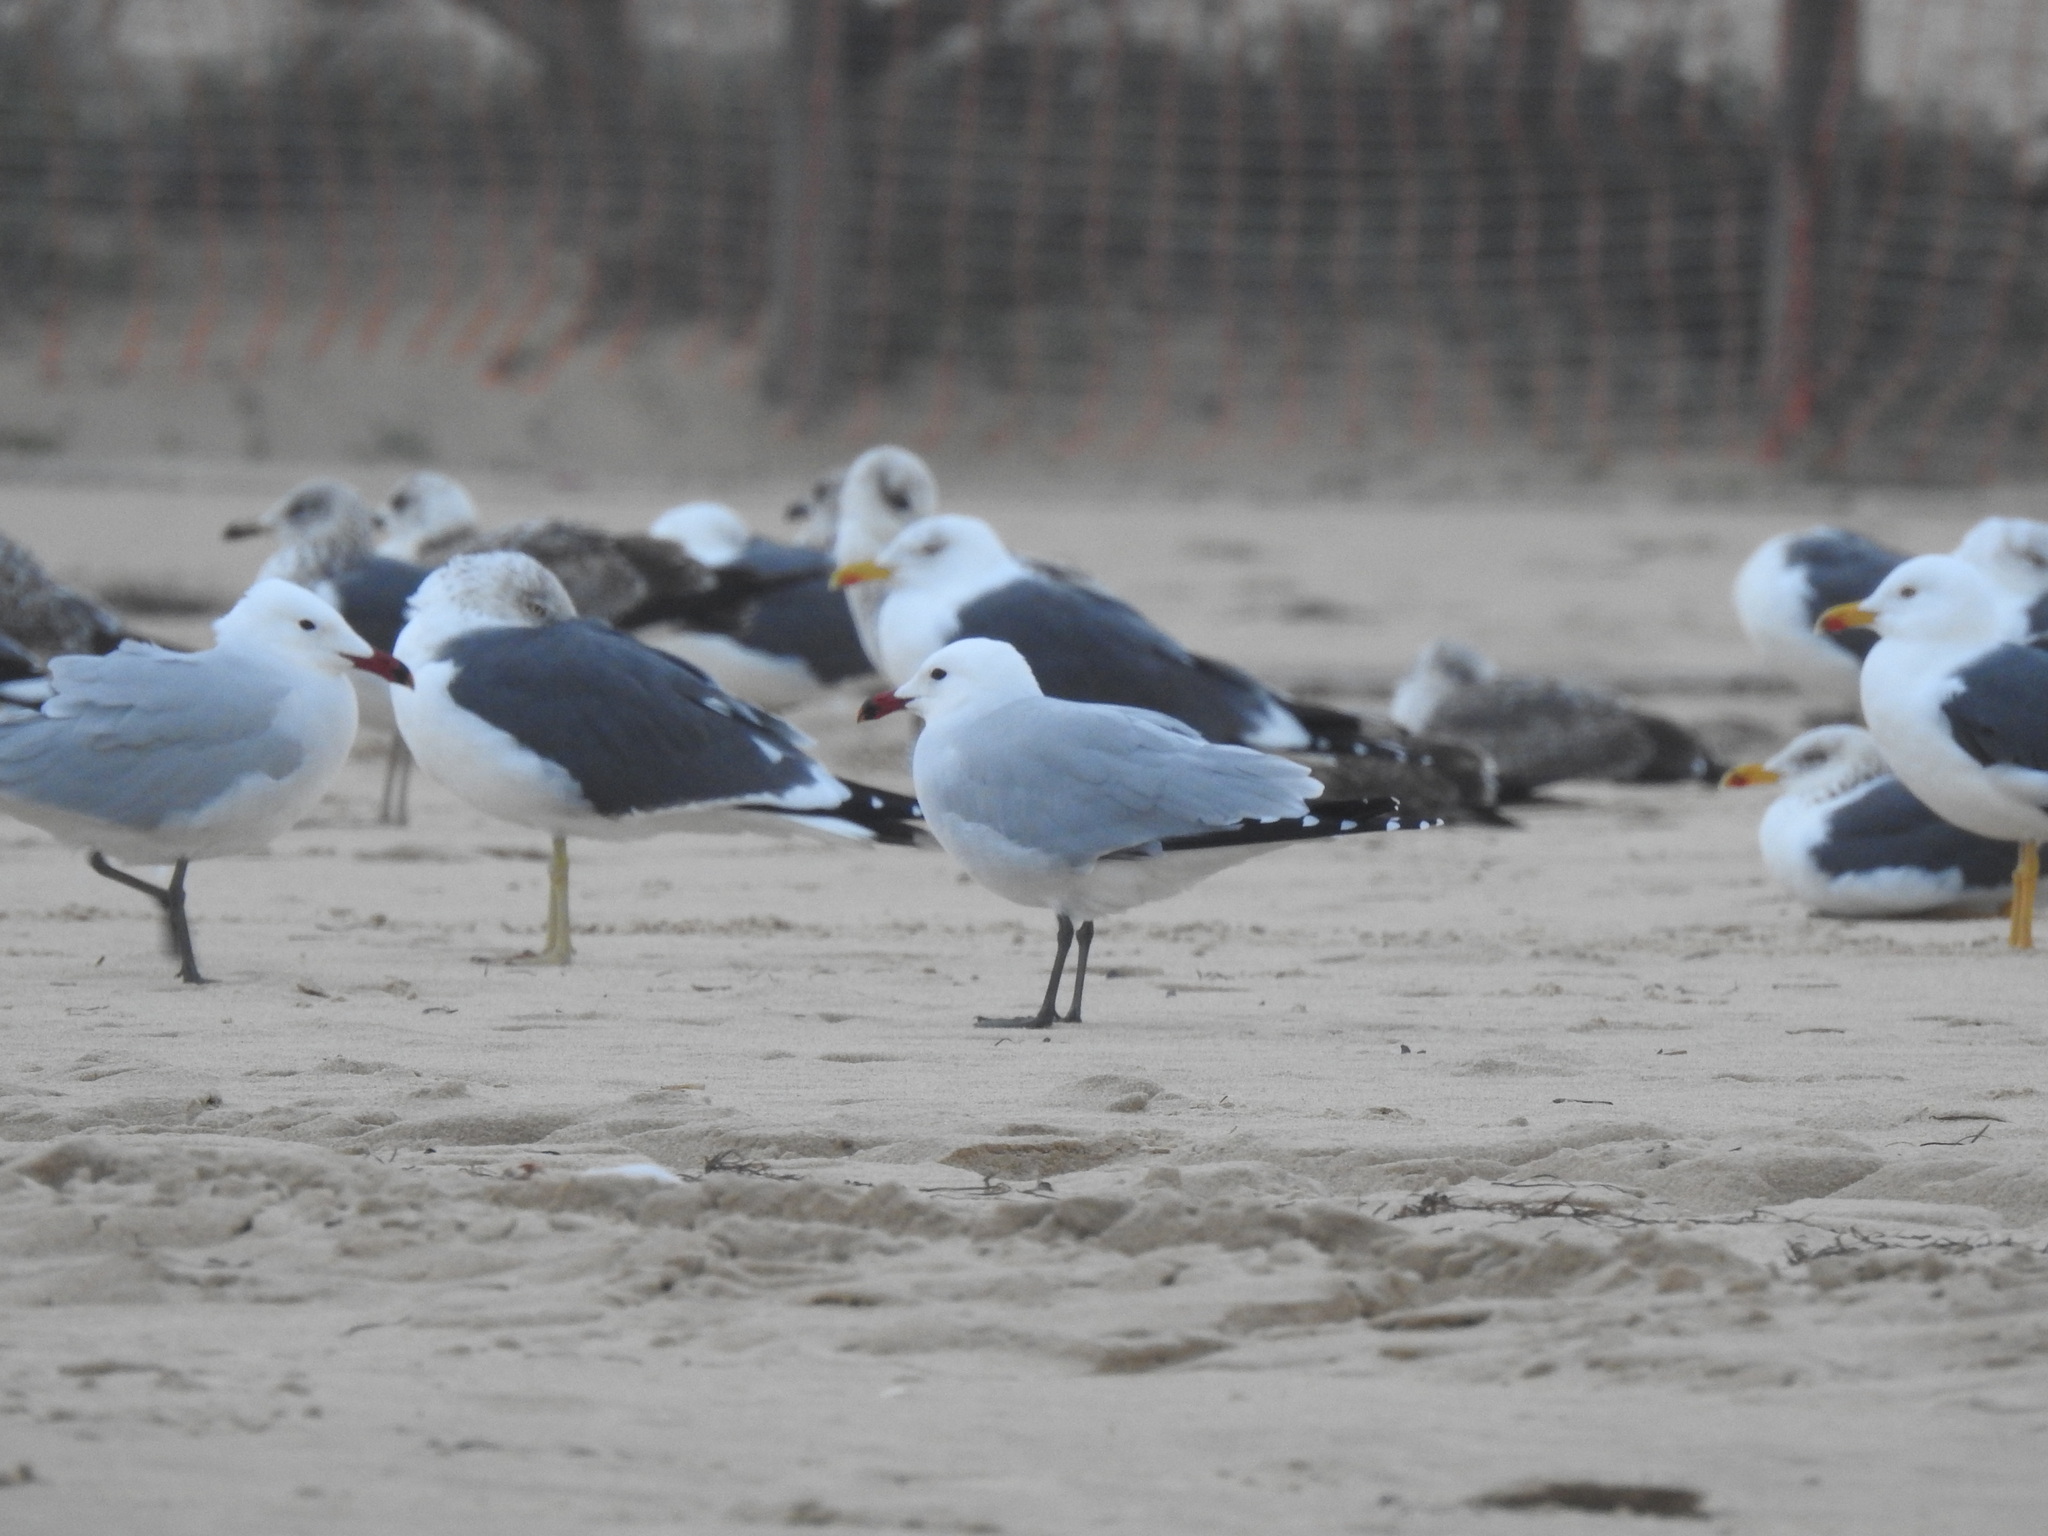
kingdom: Animalia
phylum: Chordata
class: Aves
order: Charadriiformes
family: Laridae
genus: Ichthyaetus
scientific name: Ichthyaetus audouinii
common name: Audouin's gull
